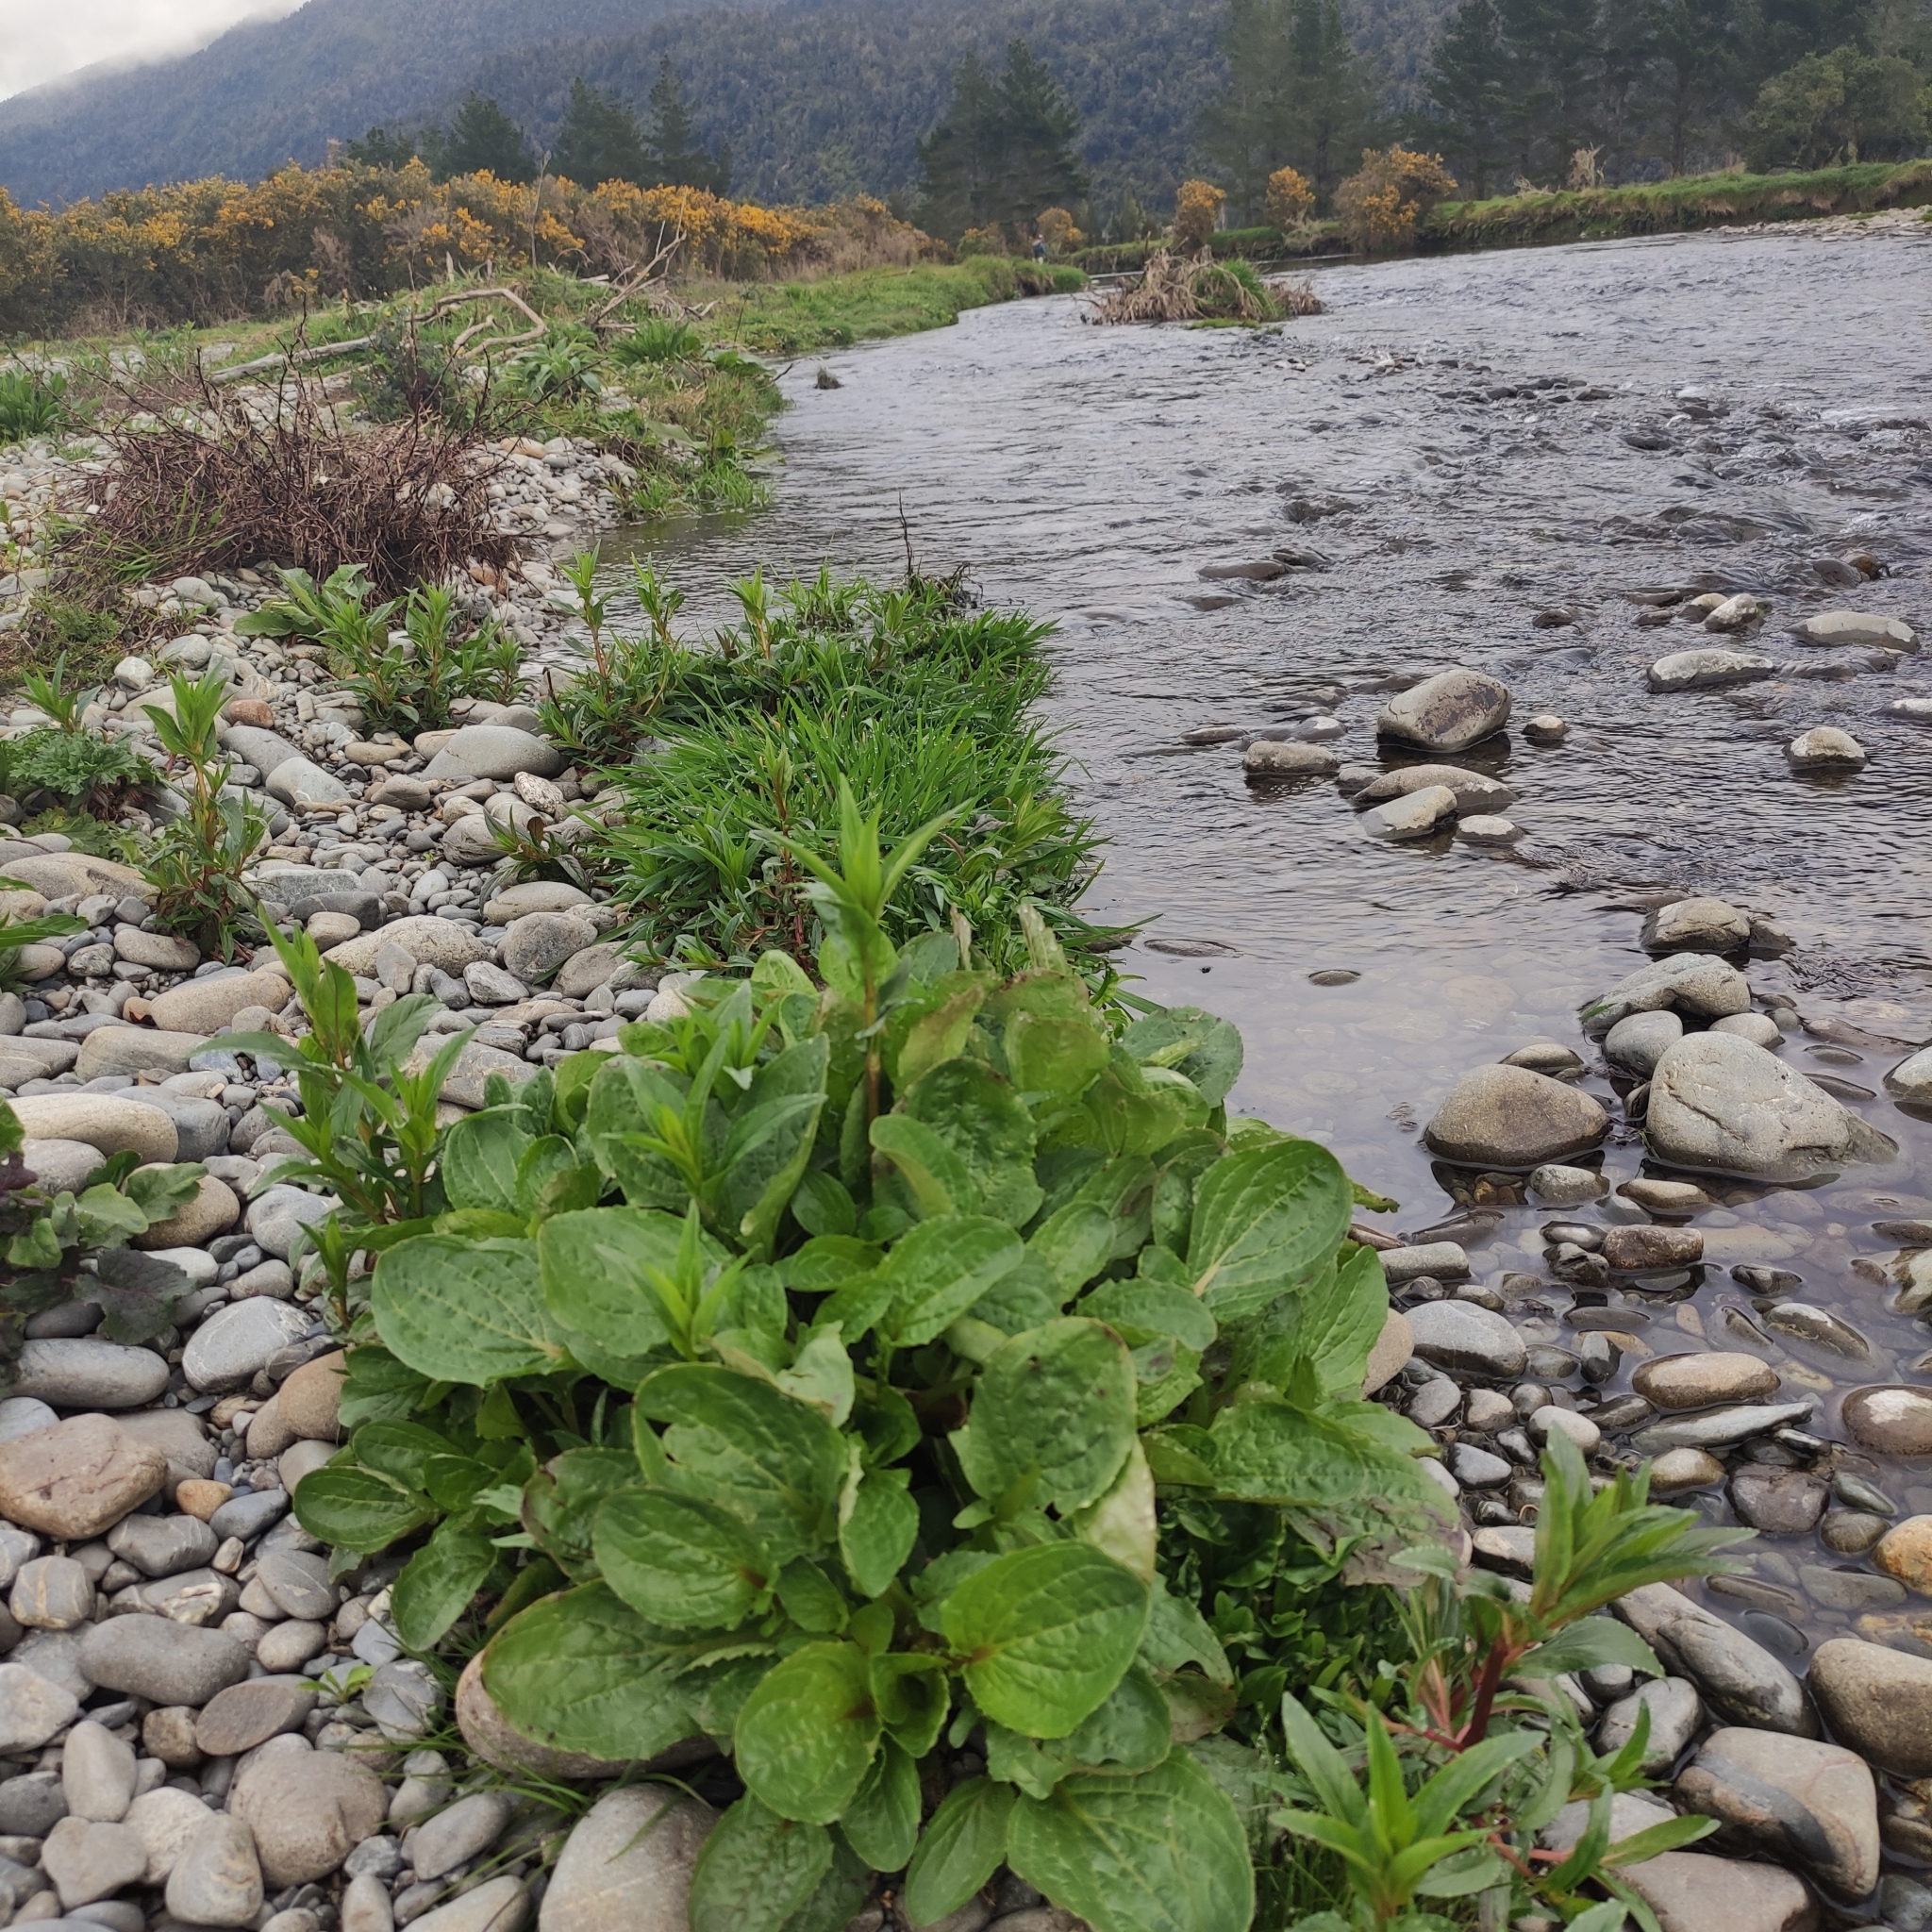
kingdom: Plantae
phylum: Tracheophyta
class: Magnoliopsida
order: Lamiales
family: Phrymaceae
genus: Erythranthe
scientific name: Erythranthe guttata
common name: Monkeyflower
